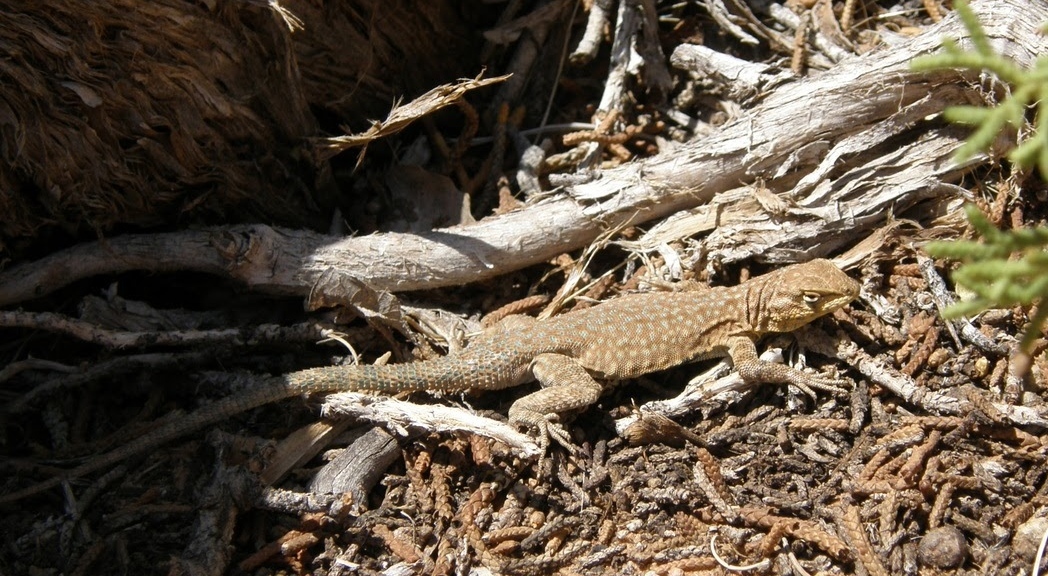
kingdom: Animalia
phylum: Chordata
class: Squamata
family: Phrynosomatidae
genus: Uta
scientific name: Uta stansburiana
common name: Side-blotched lizard
